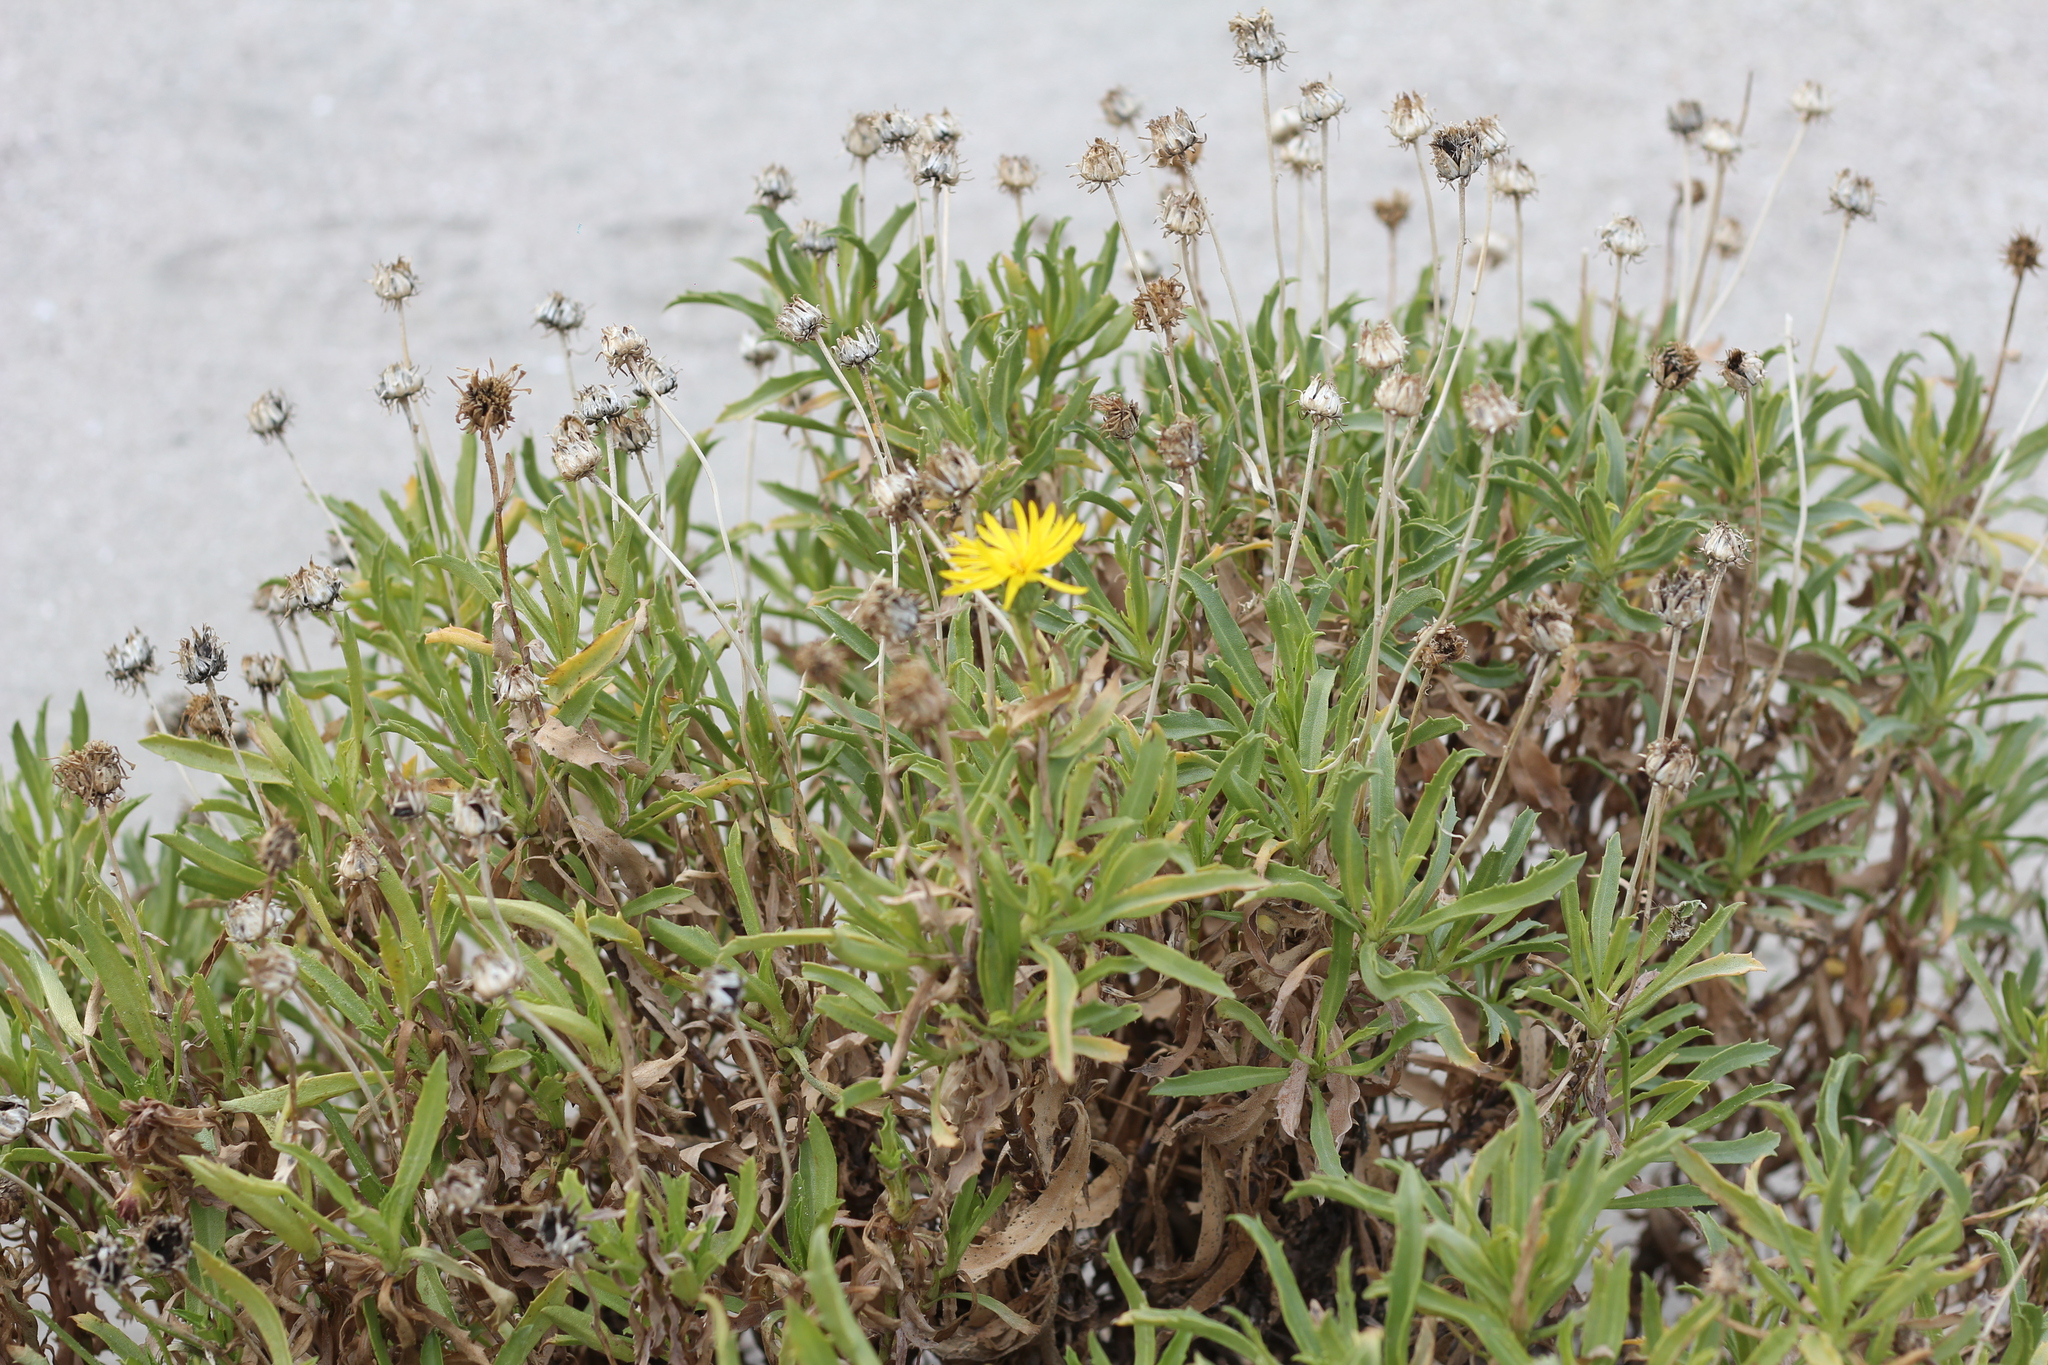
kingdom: Plantae
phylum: Tracheophyta
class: Magnoliopsida
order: Asterales
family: Asteraceae
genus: Grindelia
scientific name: Grindelia pulchella
